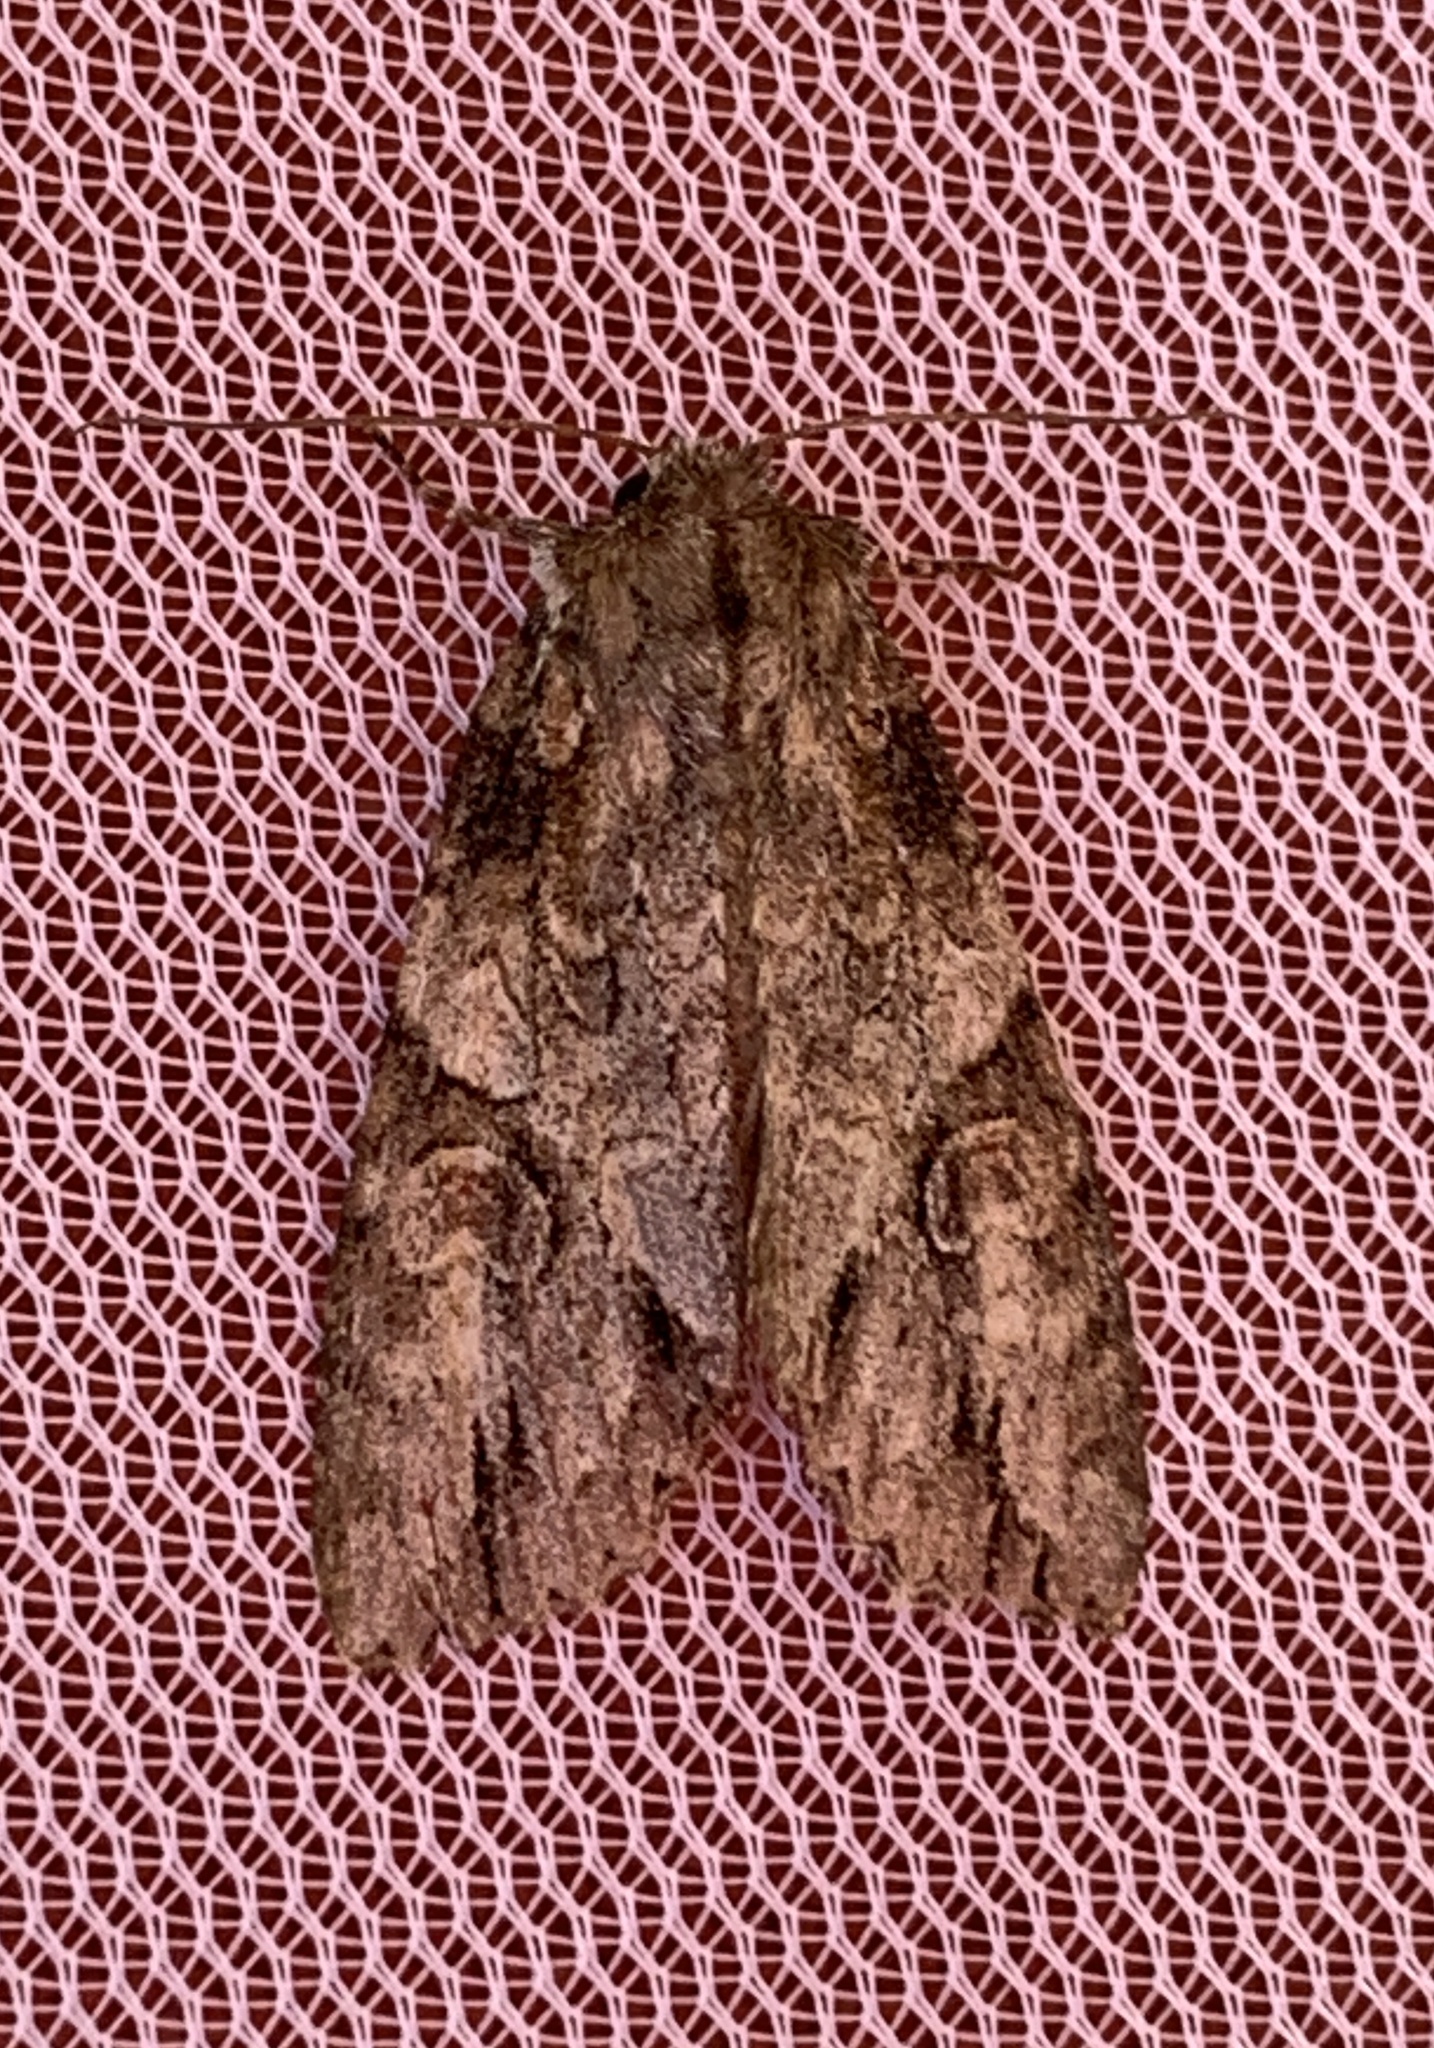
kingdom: Animalia
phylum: Arthropoda
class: Insecta
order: Lepidoptera
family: Noctuidae
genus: Achatia
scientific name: Achatia latex
